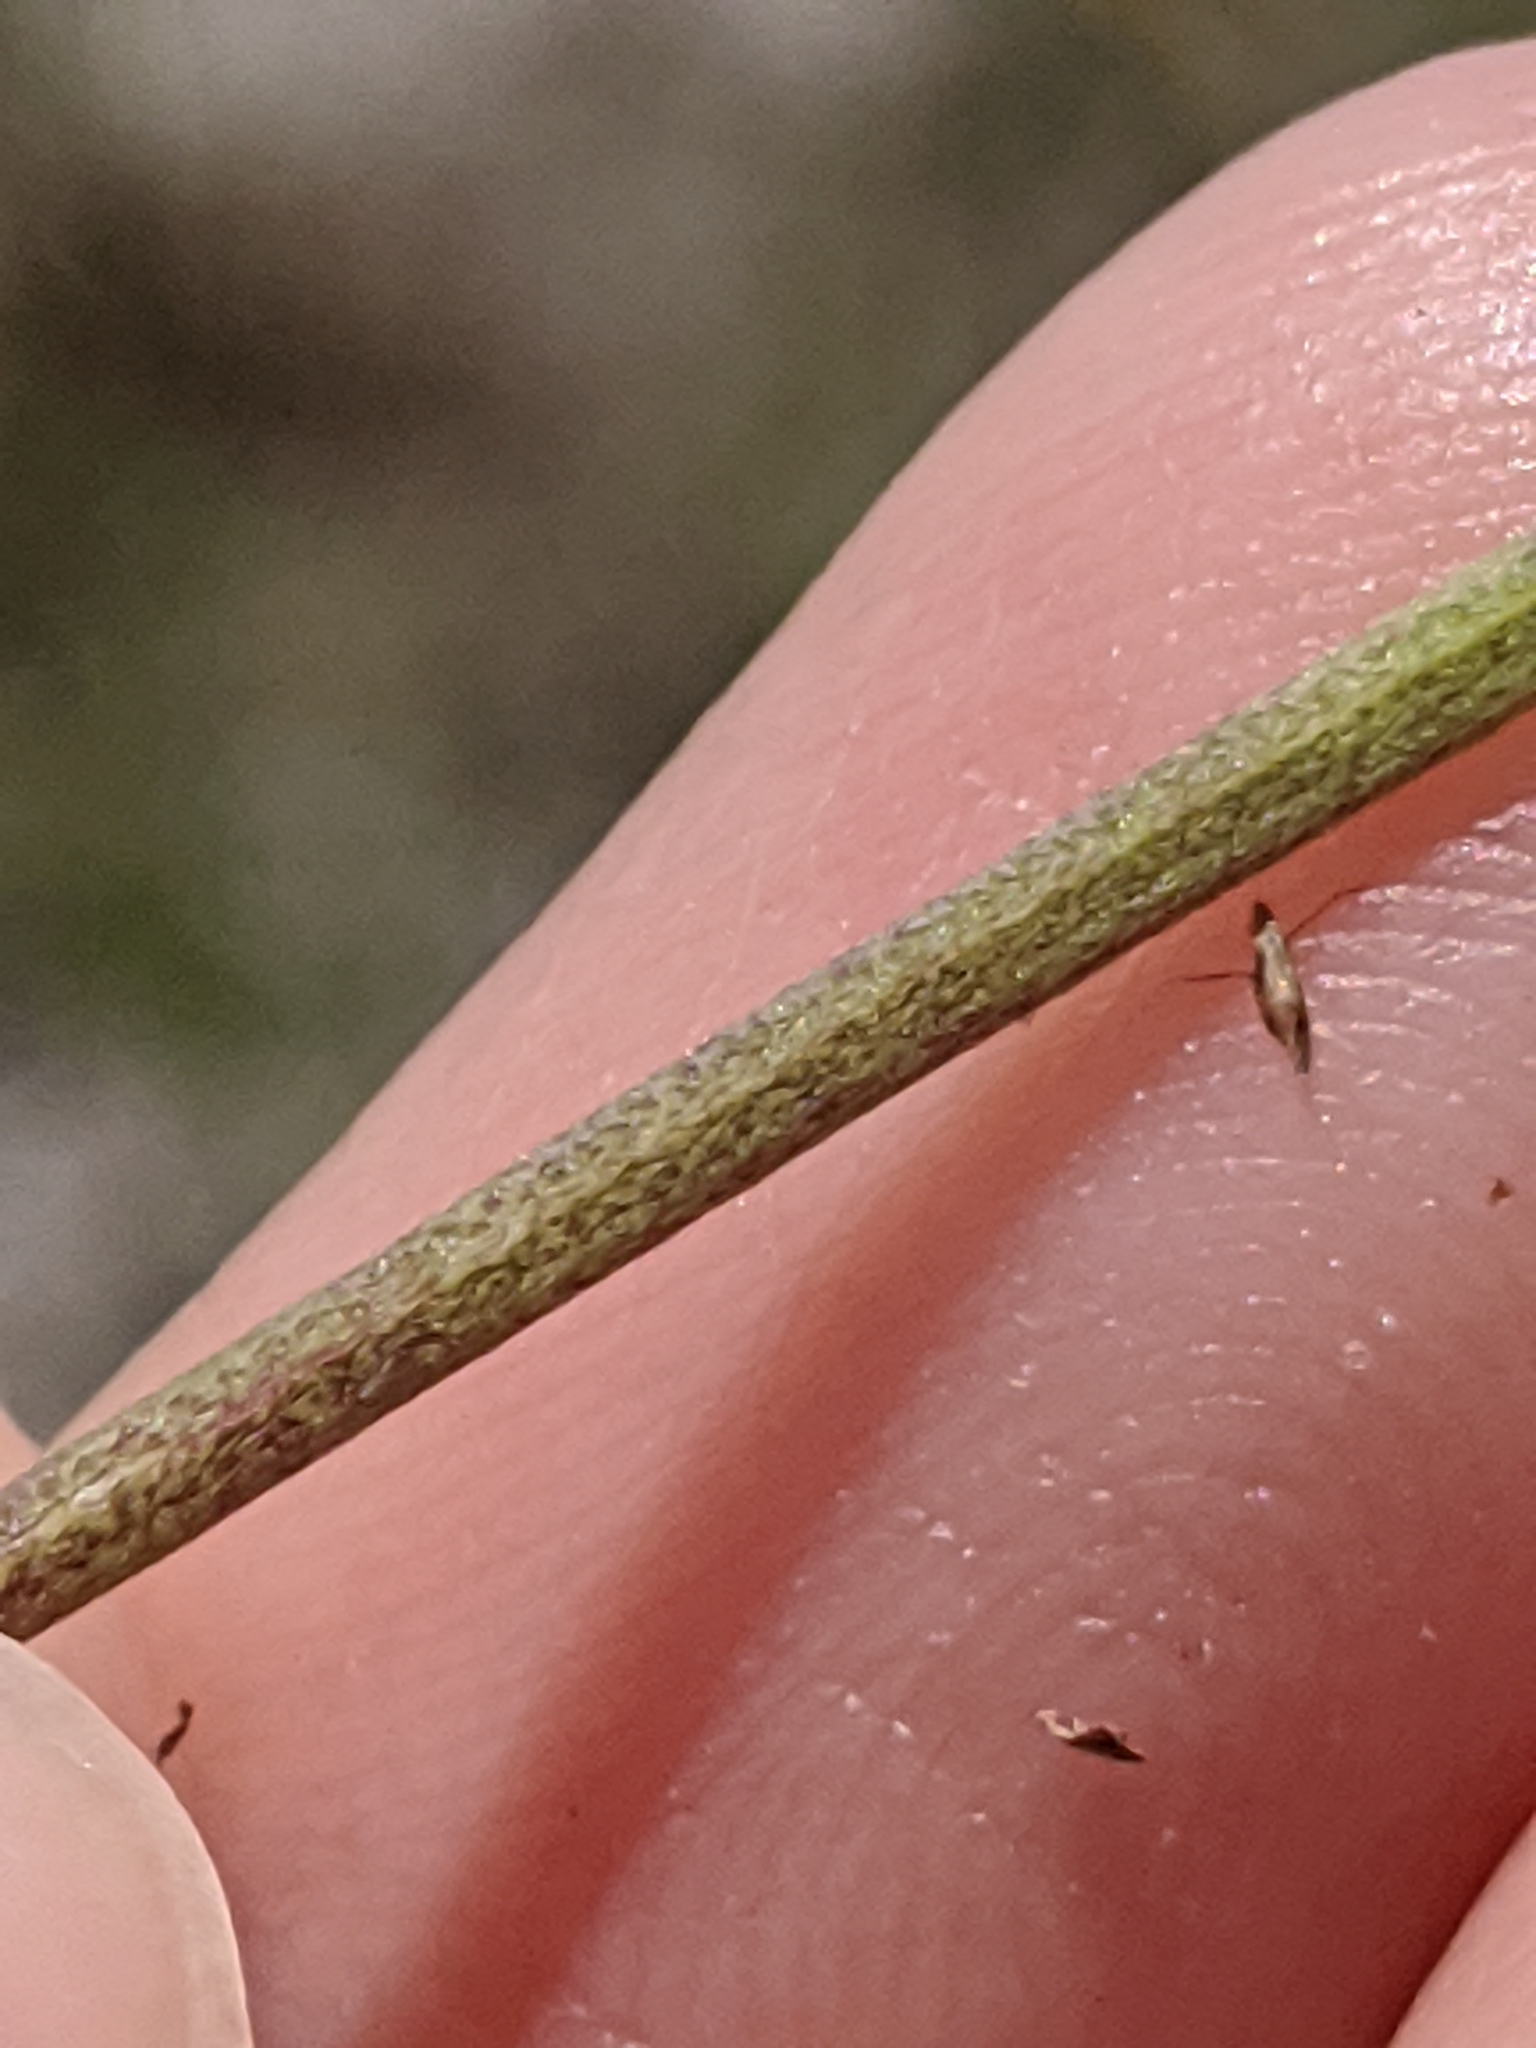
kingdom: Plantae
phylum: Tracheophyta
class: Magnoliopsida
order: Lamiales
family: Verbenaceae
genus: Phyla
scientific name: Phyla nodiflora
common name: Frogfruit
